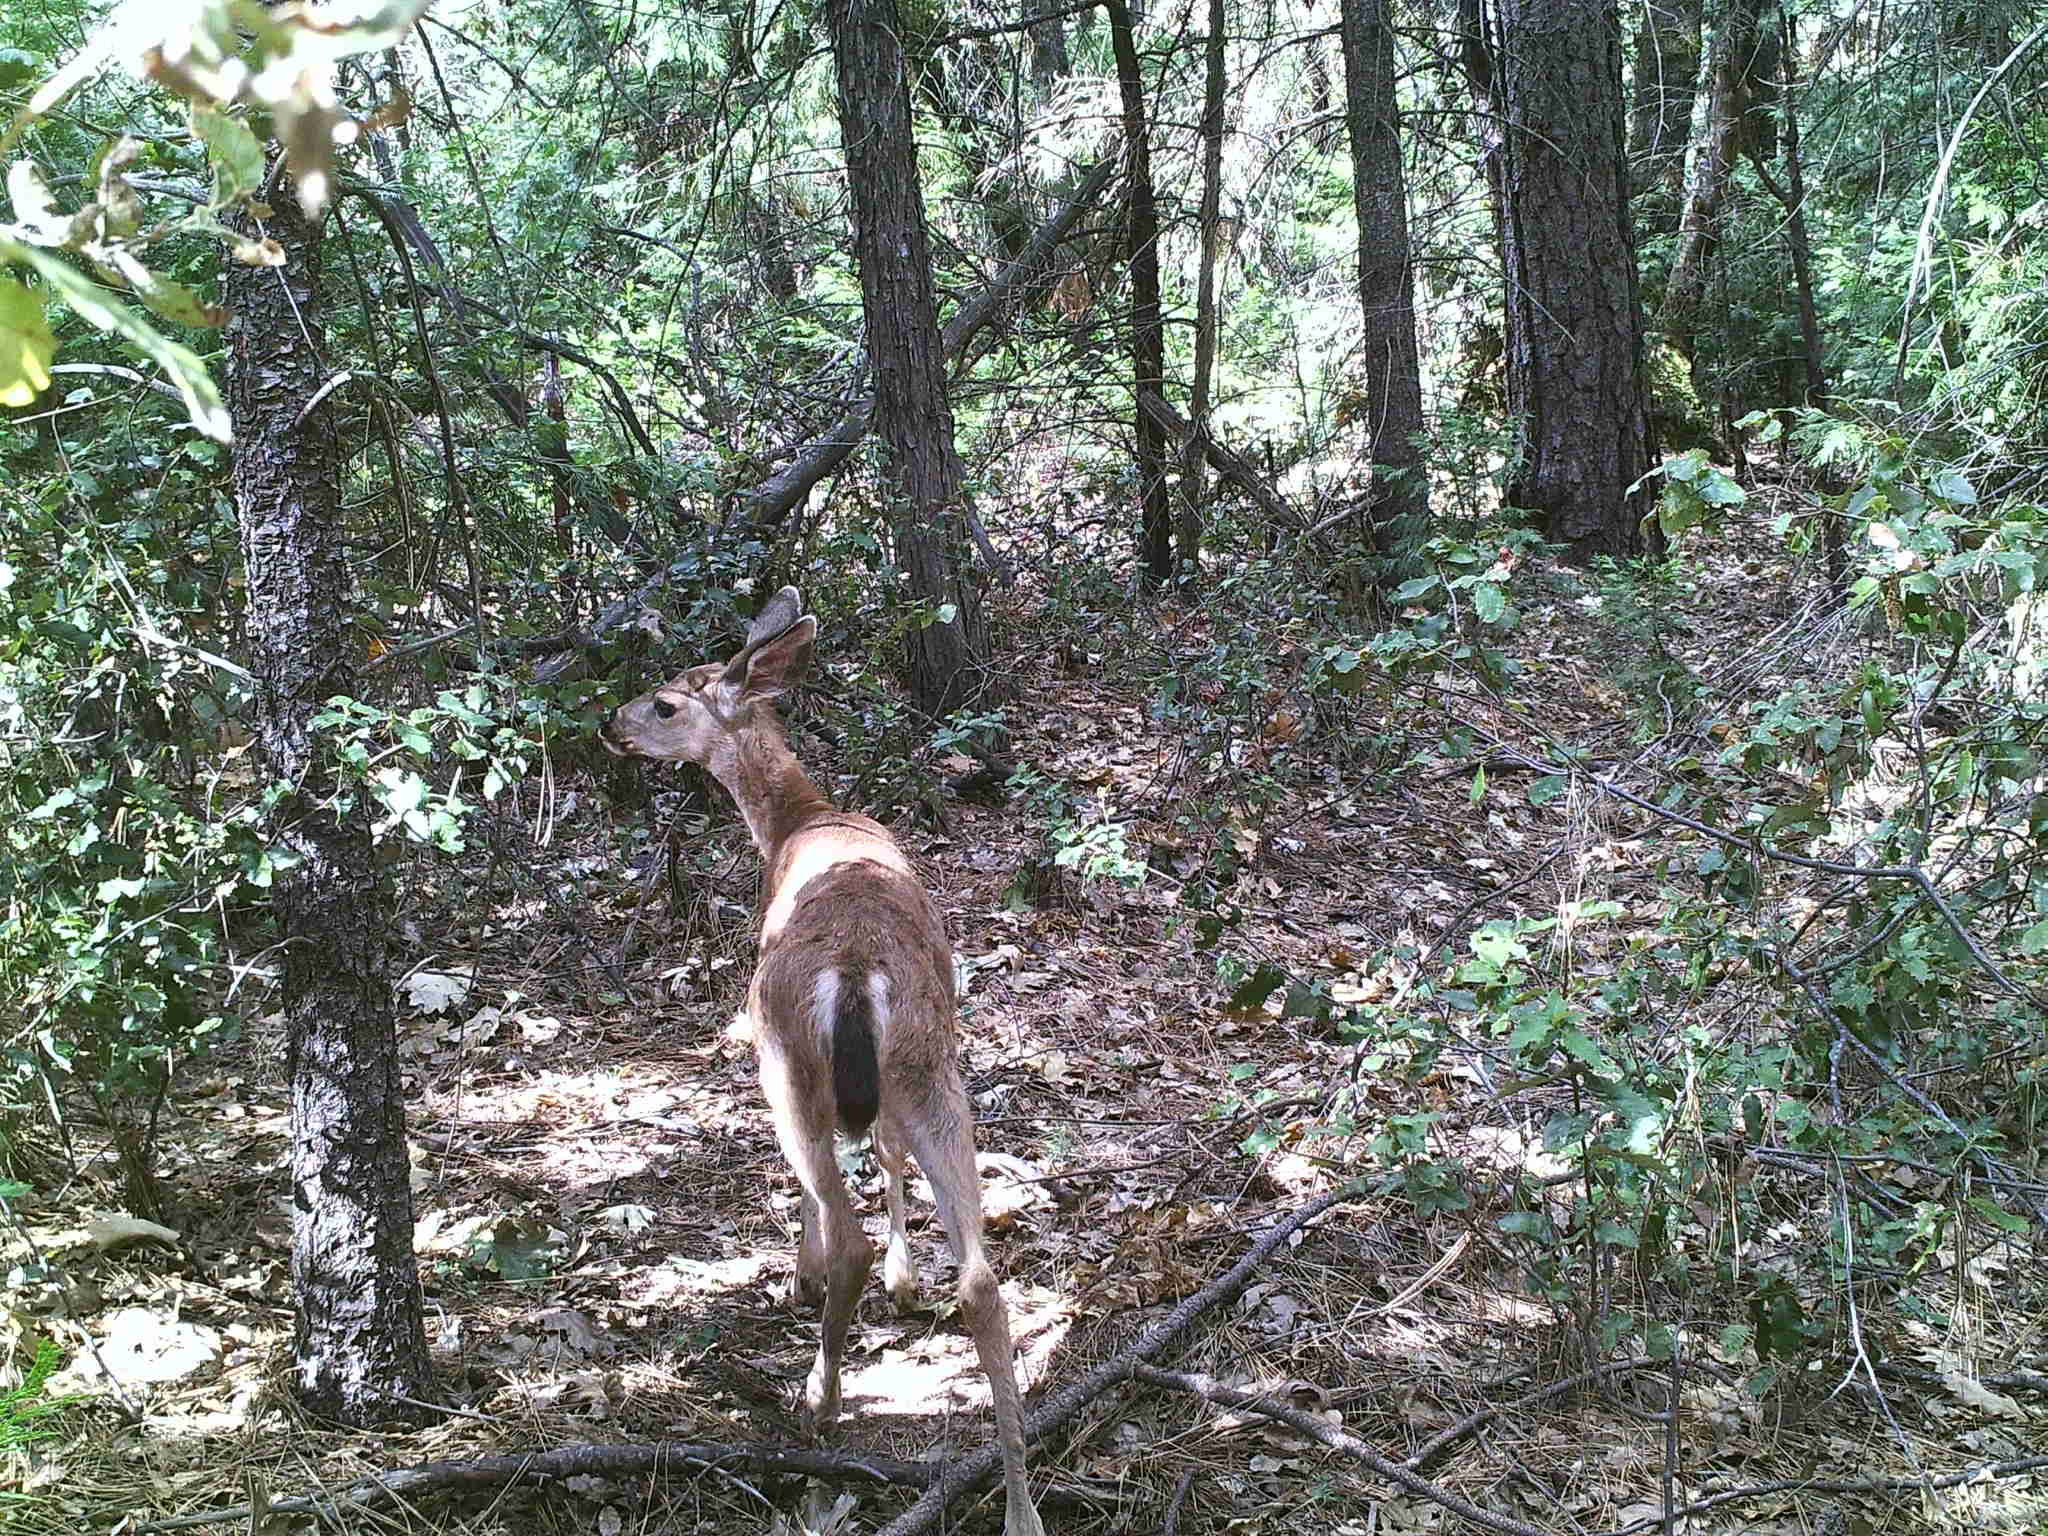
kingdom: Animalia
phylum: Chordata
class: Mammalia
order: Artiodactyla
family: Cervidae
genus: Odocoileus
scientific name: Odocoileus hemionus
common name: Mule deer
